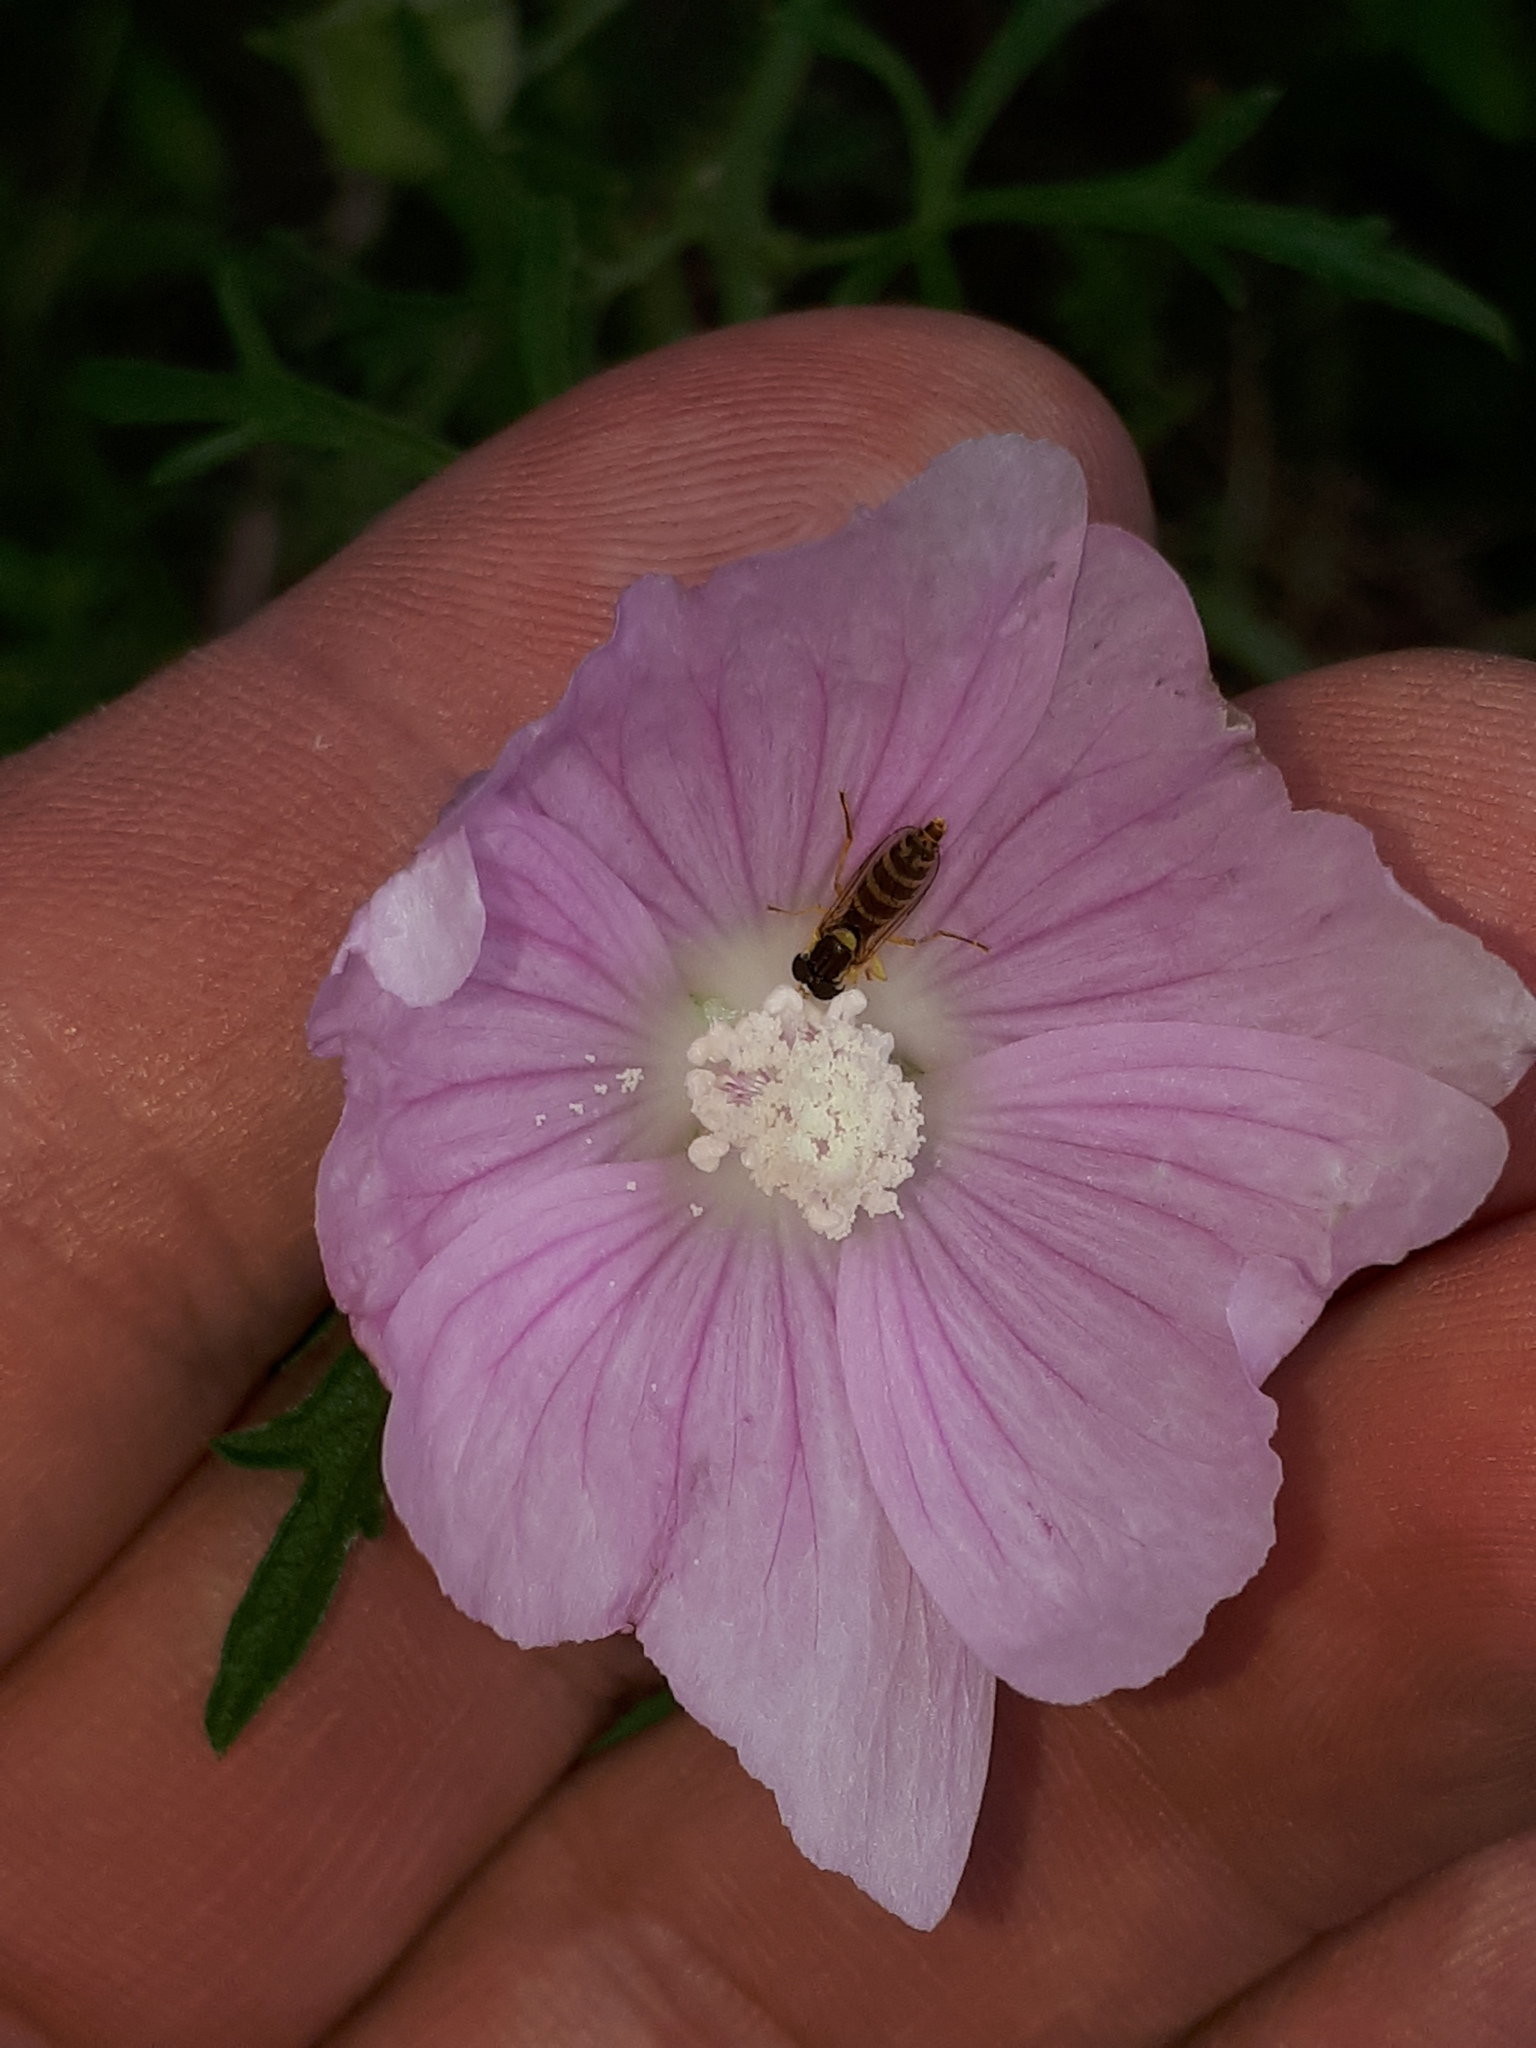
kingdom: Plantae
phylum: Tracheophyta
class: Magnoliopsida
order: Malvales
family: Malvaceae
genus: Malva
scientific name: Malva alcea
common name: Greater musk-mallow
